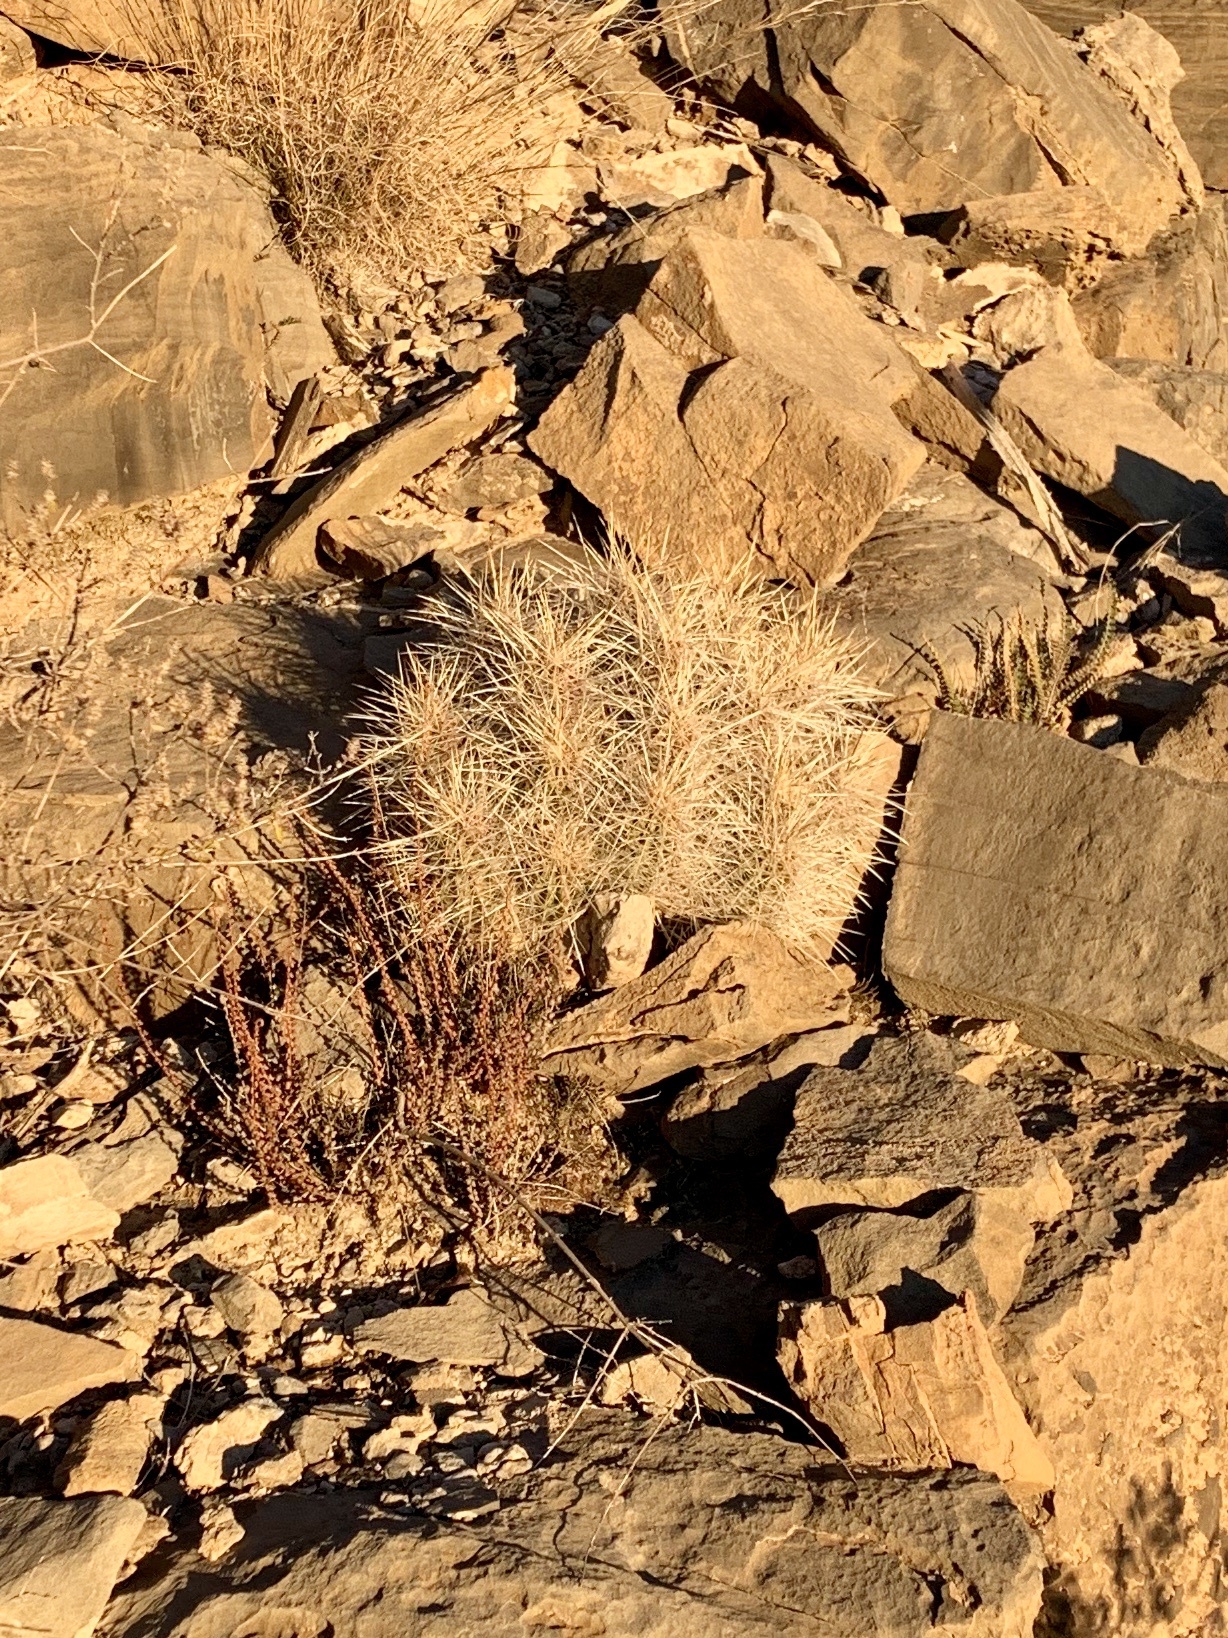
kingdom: Plantae
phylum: Tracheophyta
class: Magnoliopsida
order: Caryophyllales
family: Cactaceae
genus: Echinocereus
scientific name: Echinocereus stramineus
